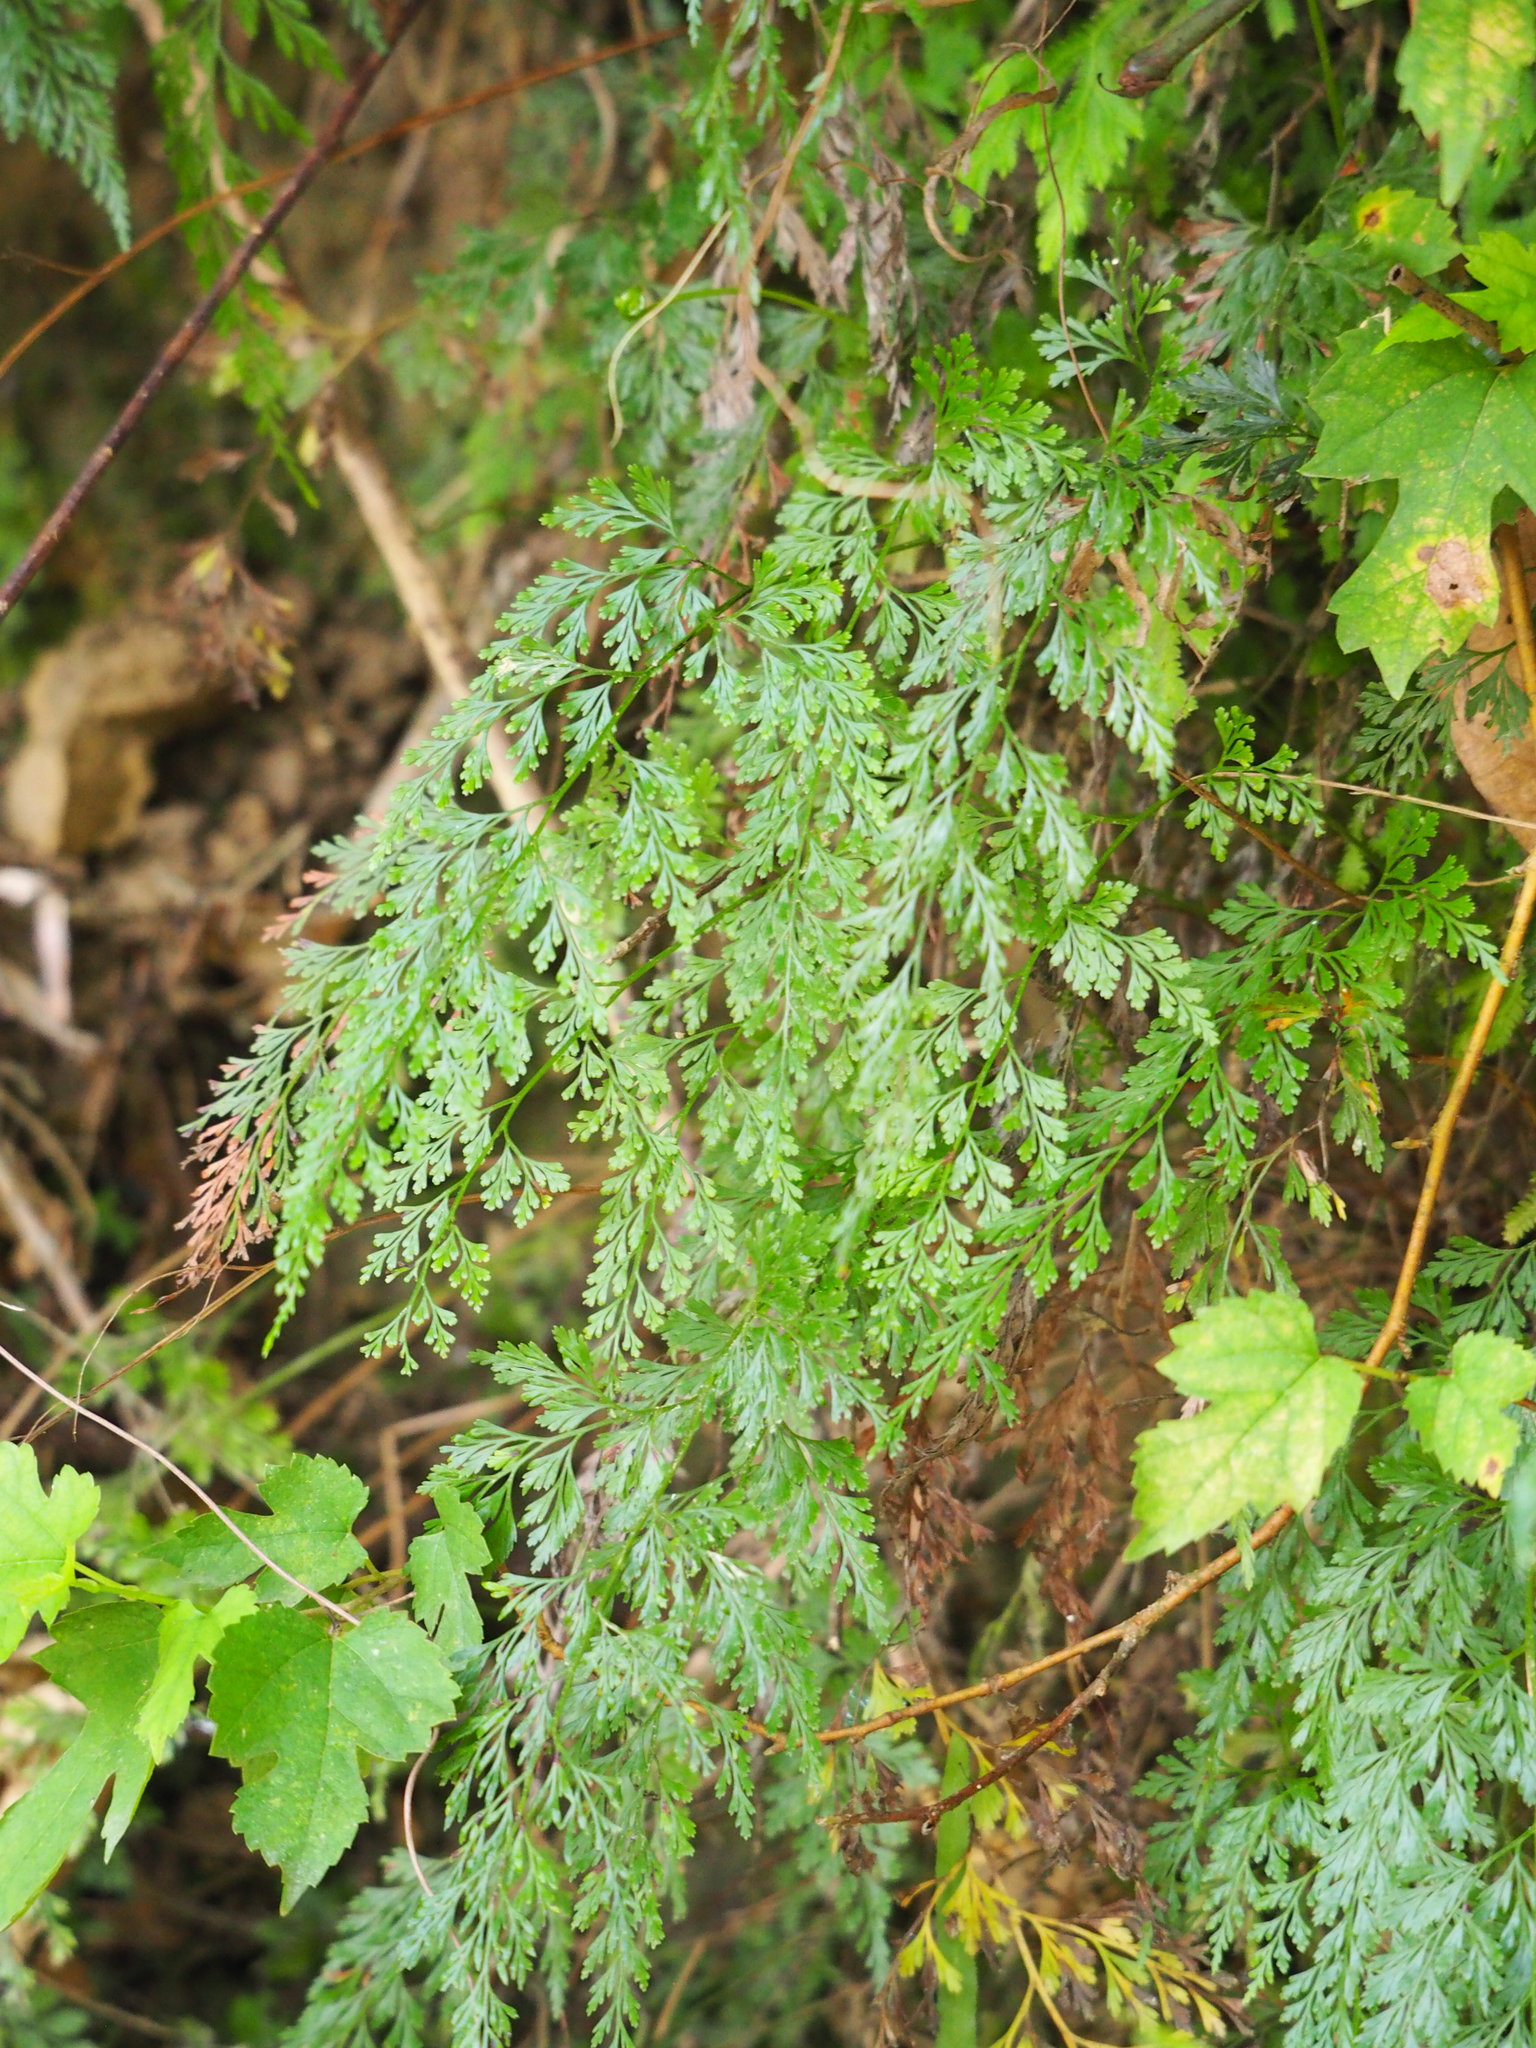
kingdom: Plantae
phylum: Tracheophyta
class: Polypodiopsida
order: Polypodiales
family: Pteridaceae
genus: Onychium
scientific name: Onychium japonicum
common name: Carrot fern
